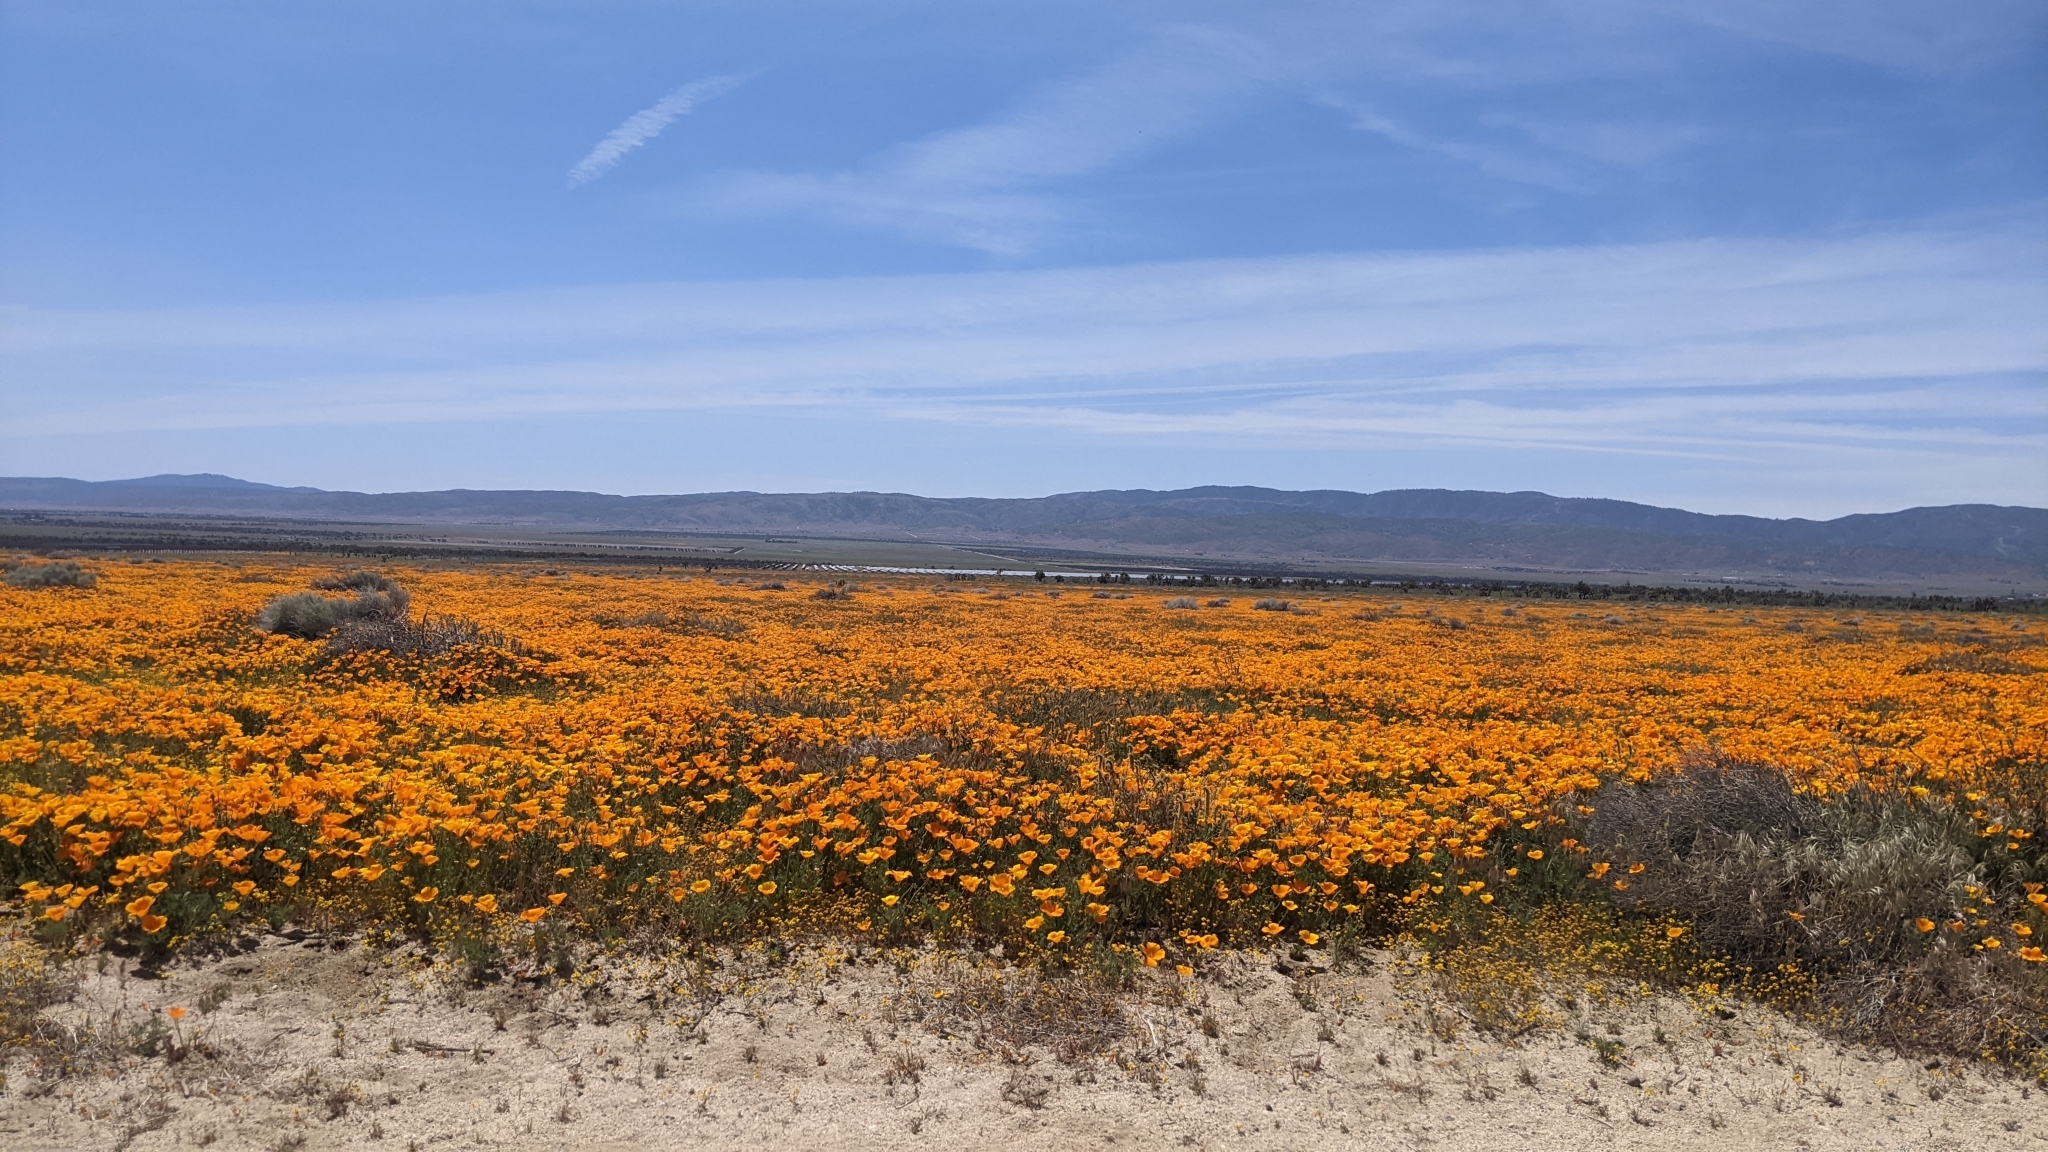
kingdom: Plantae
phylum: Tracheophyta
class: Magnoliopsida
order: Ranunculales
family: Papaveraceae
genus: Eschscholzia
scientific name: Eschscholzia californica
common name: California poppy
